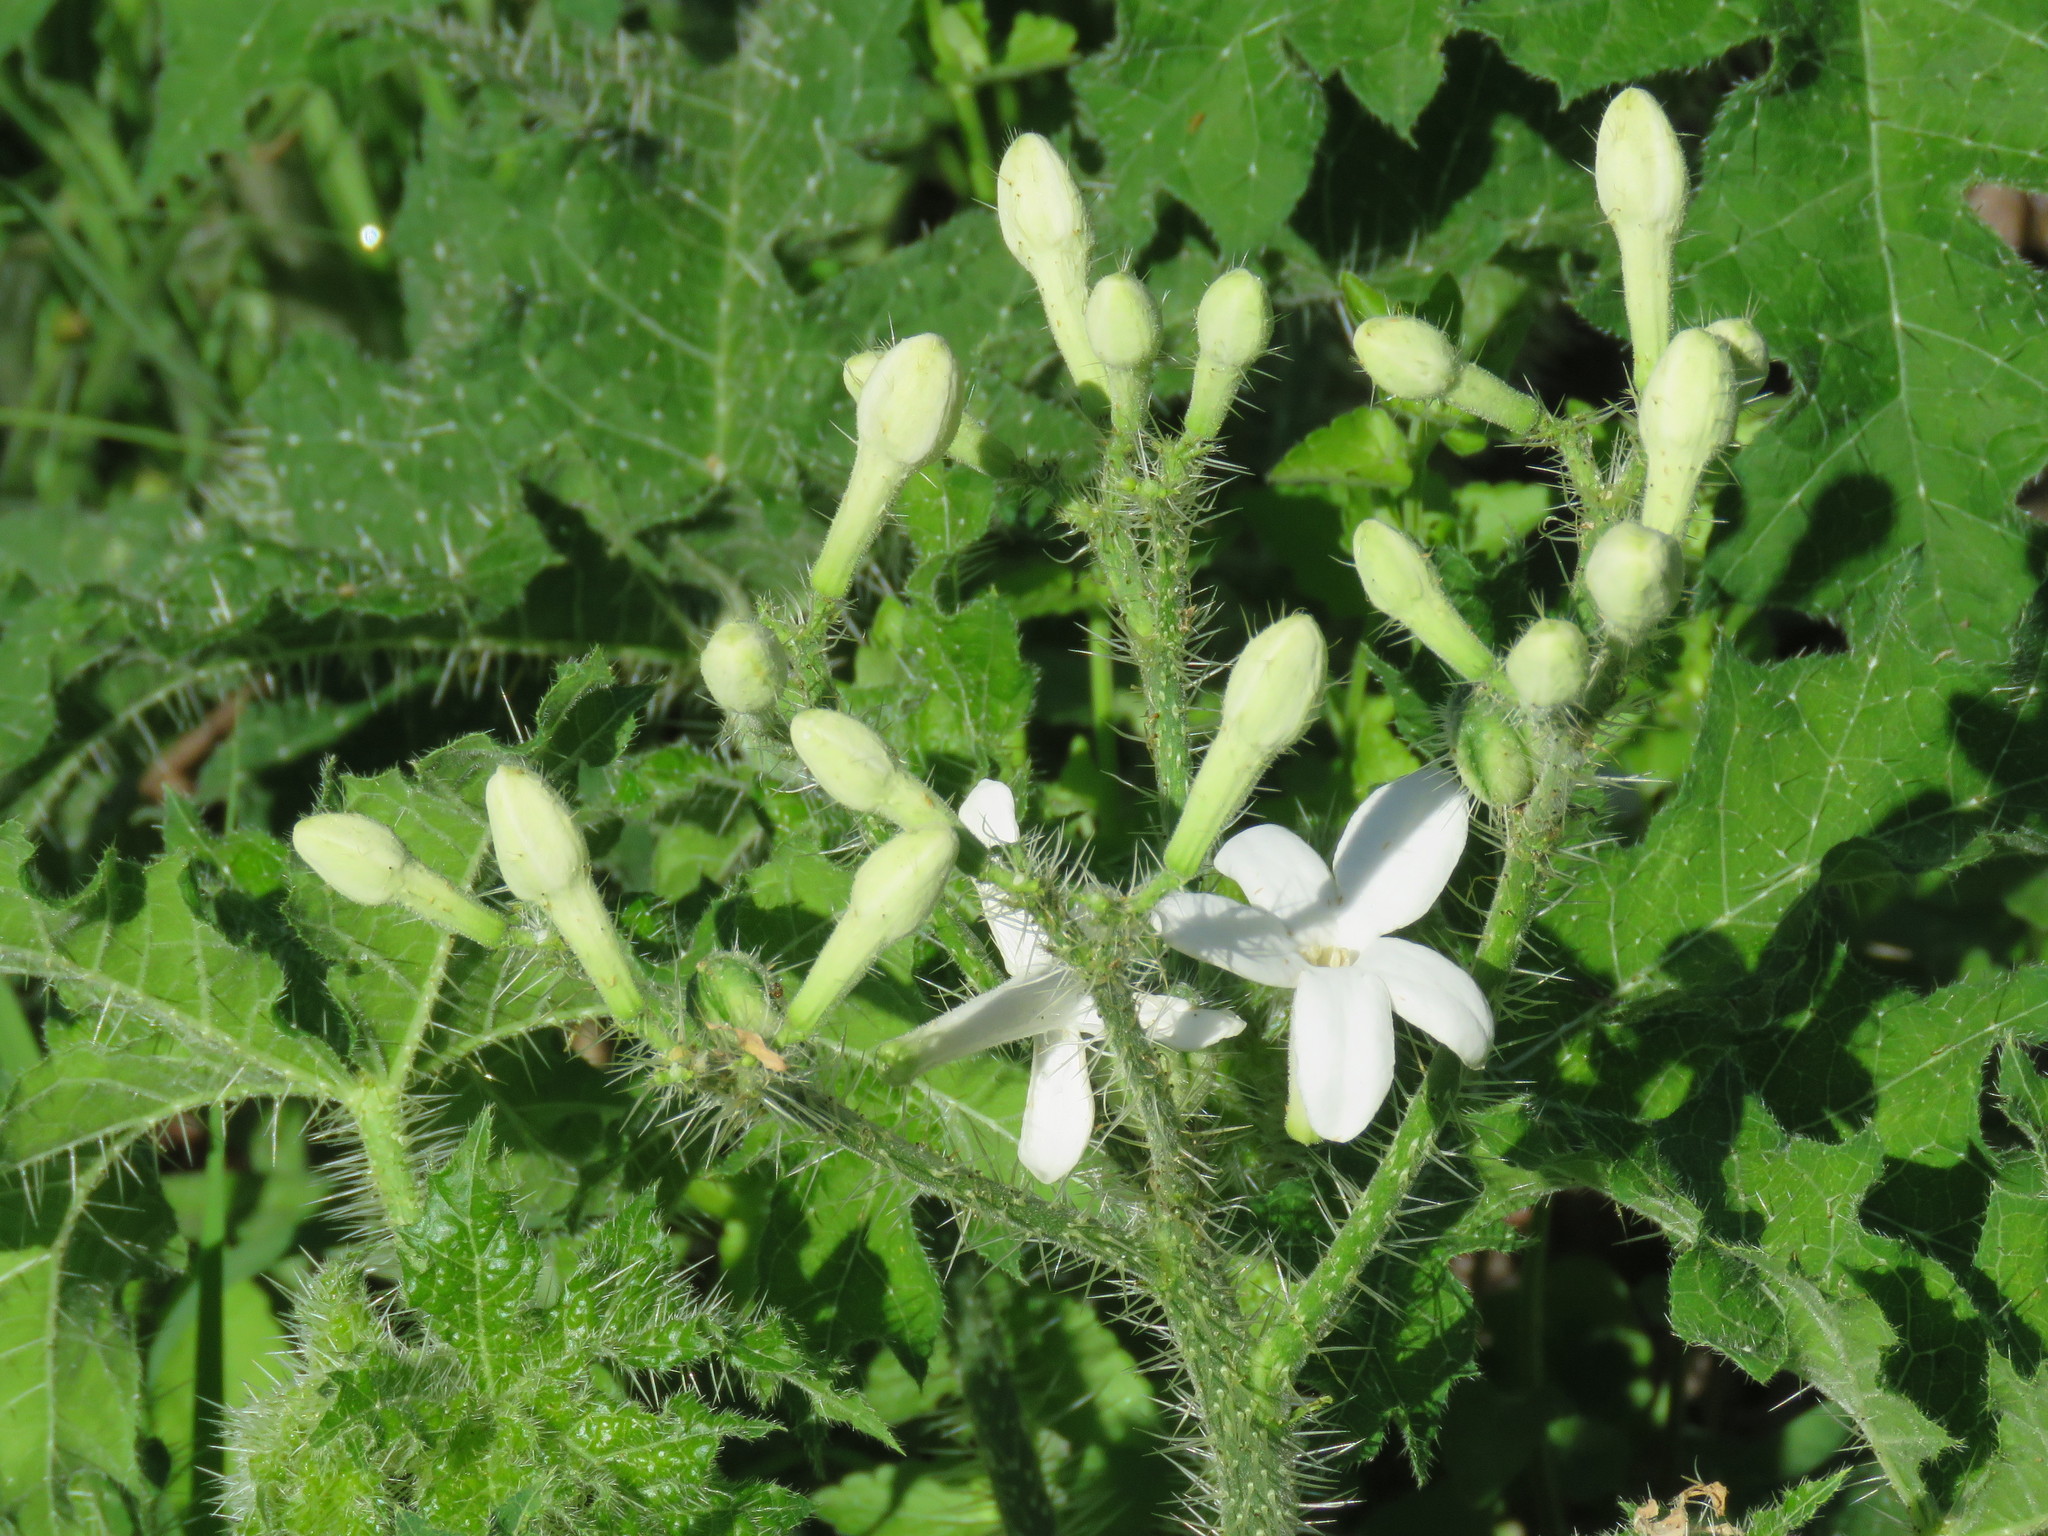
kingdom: Plantae
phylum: Tracheophyta
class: Magnoliopsida
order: Malpighiales
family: Euphorbiaceae
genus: Cnidoscolus
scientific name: Cnidoscolus texanus
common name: Texas bull-nettle
